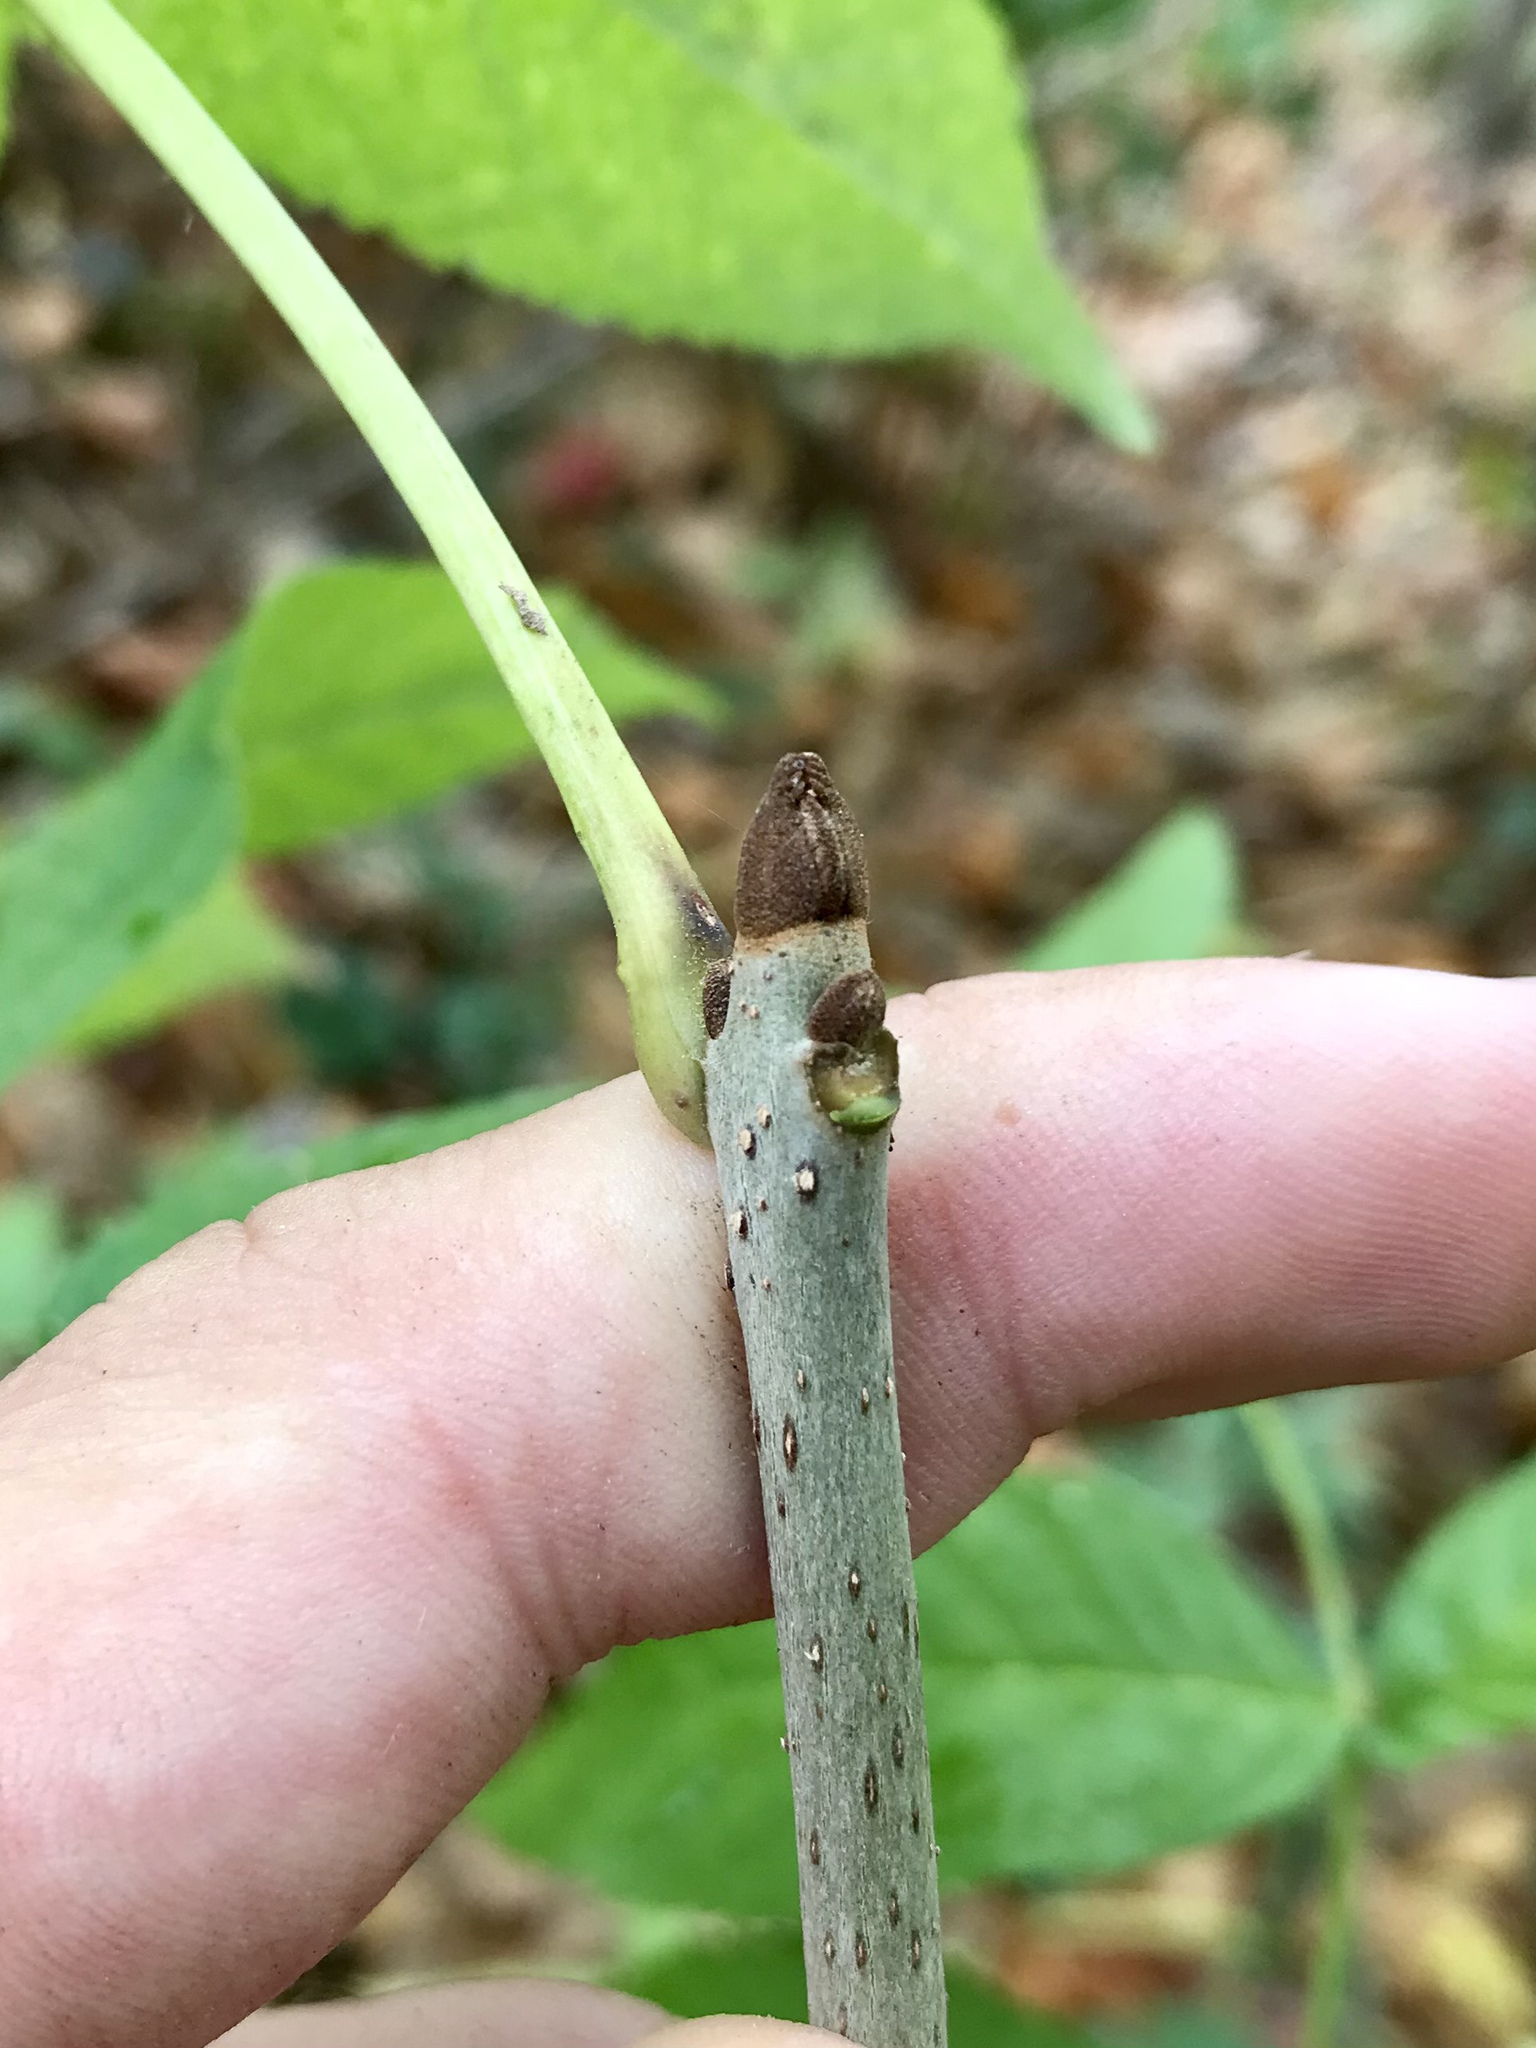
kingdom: Plantae
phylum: Tracheophyta
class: Magnoliopsida
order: Lamiales
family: Oleaceae
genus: Fraxinus
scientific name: Fraxinus nigra
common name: Black ash
